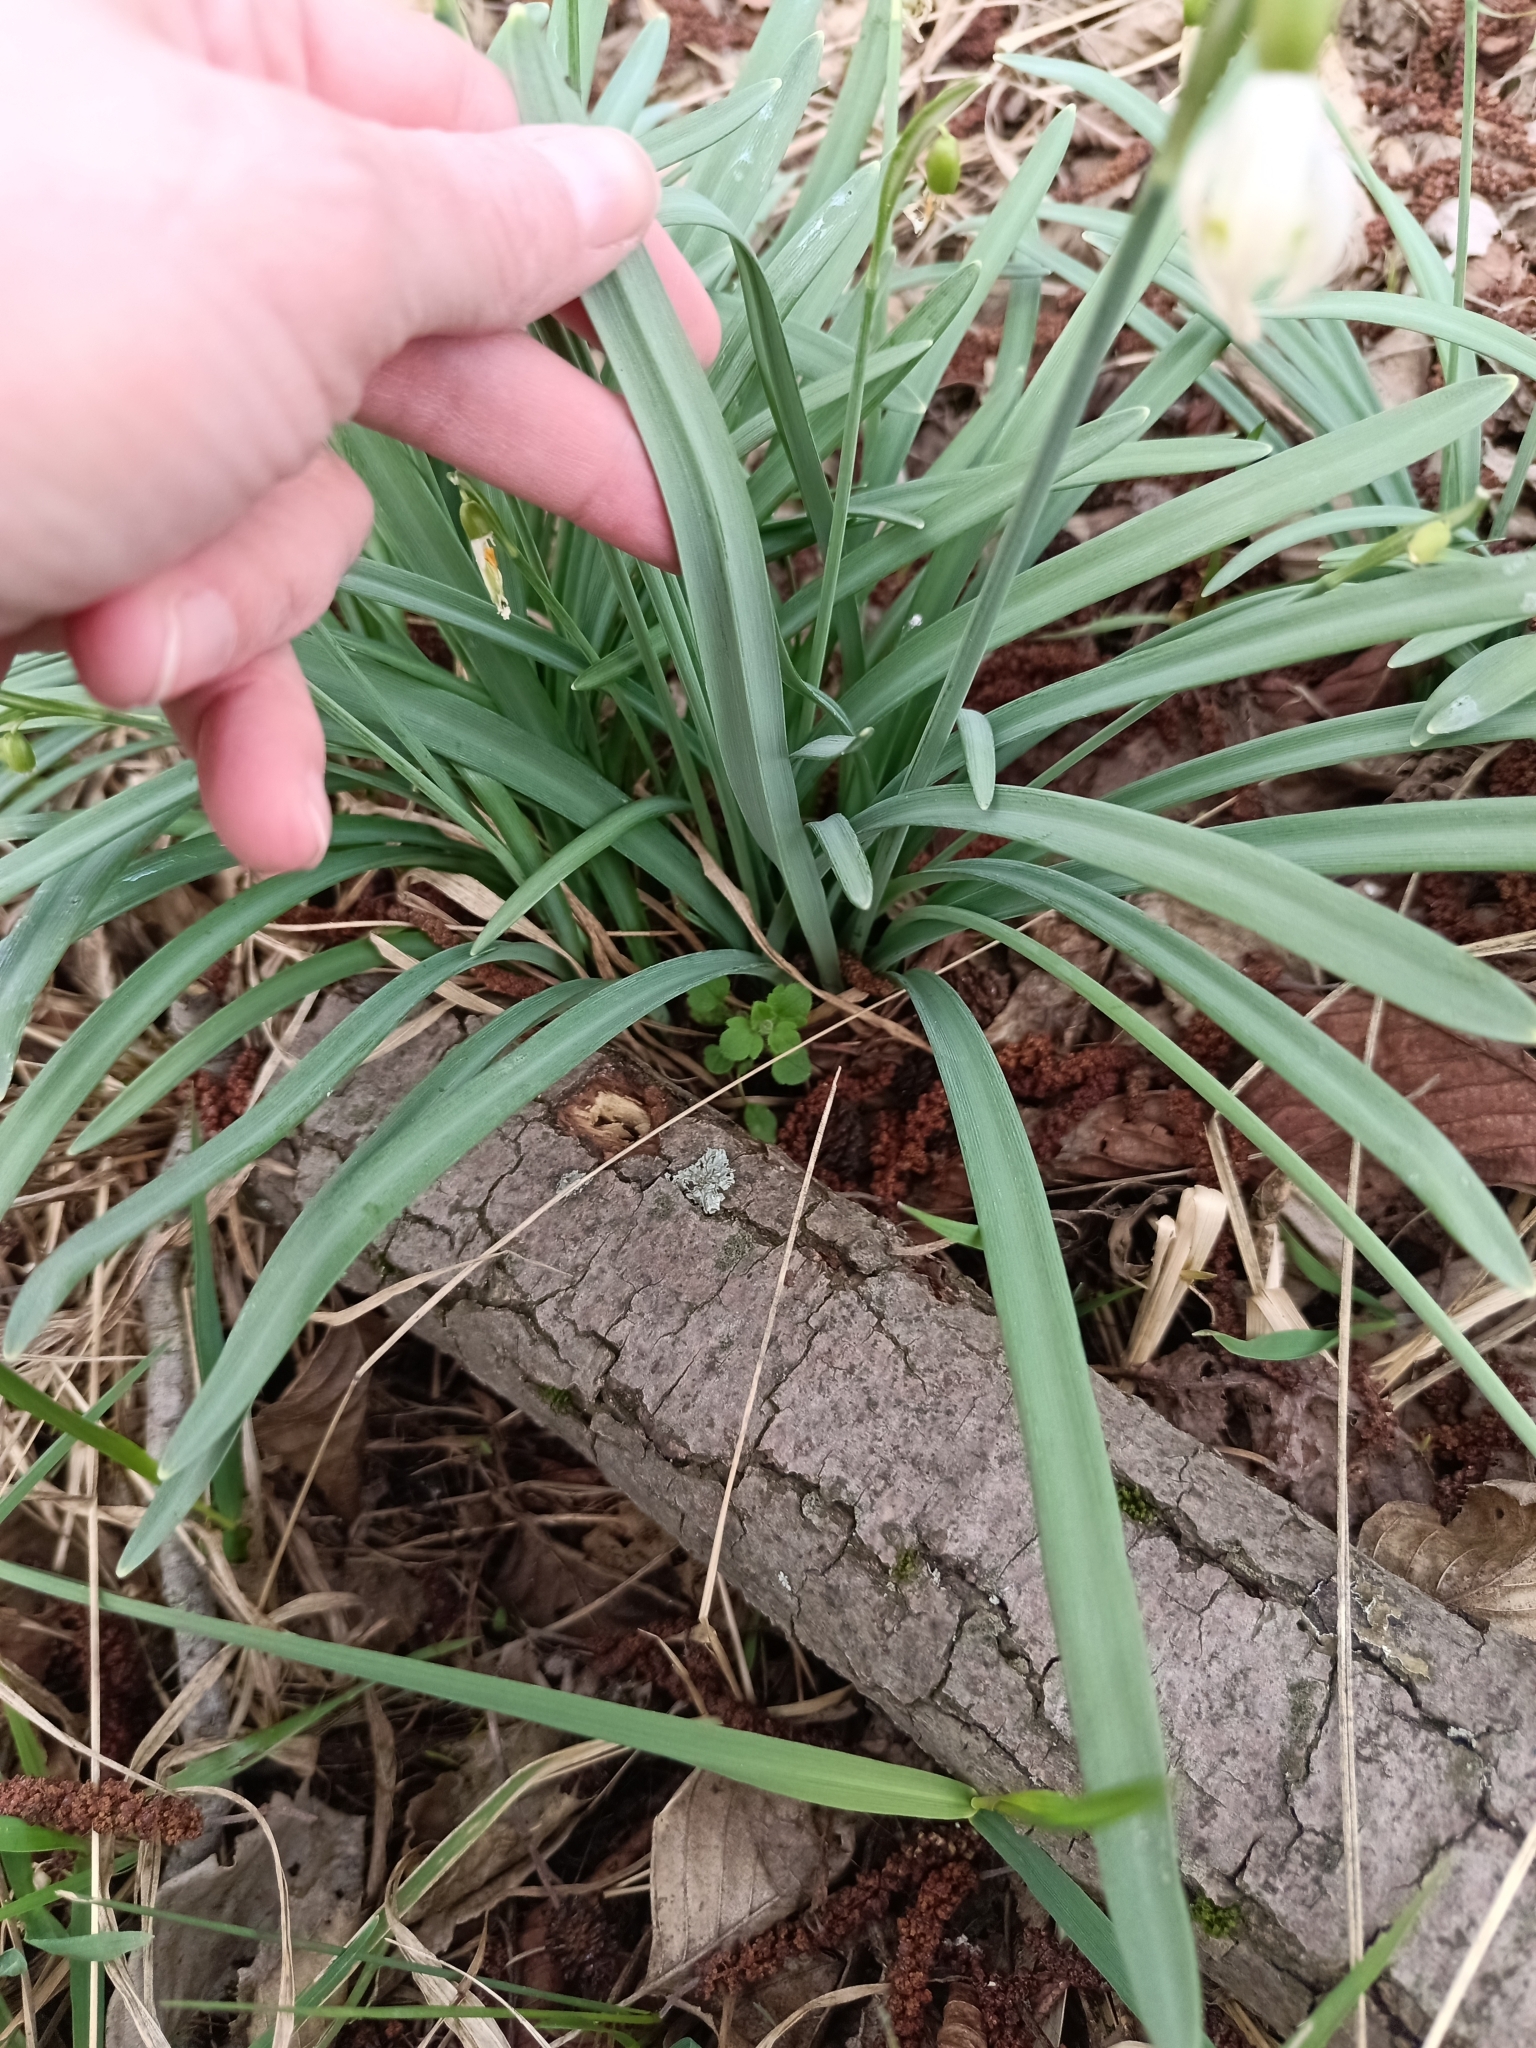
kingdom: Plantae
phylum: Tracheophyta
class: Liliopsida
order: Asparagales
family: Amaryllidaceae
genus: Galanthus
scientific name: Galanthus nivalis
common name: Snowdrop
